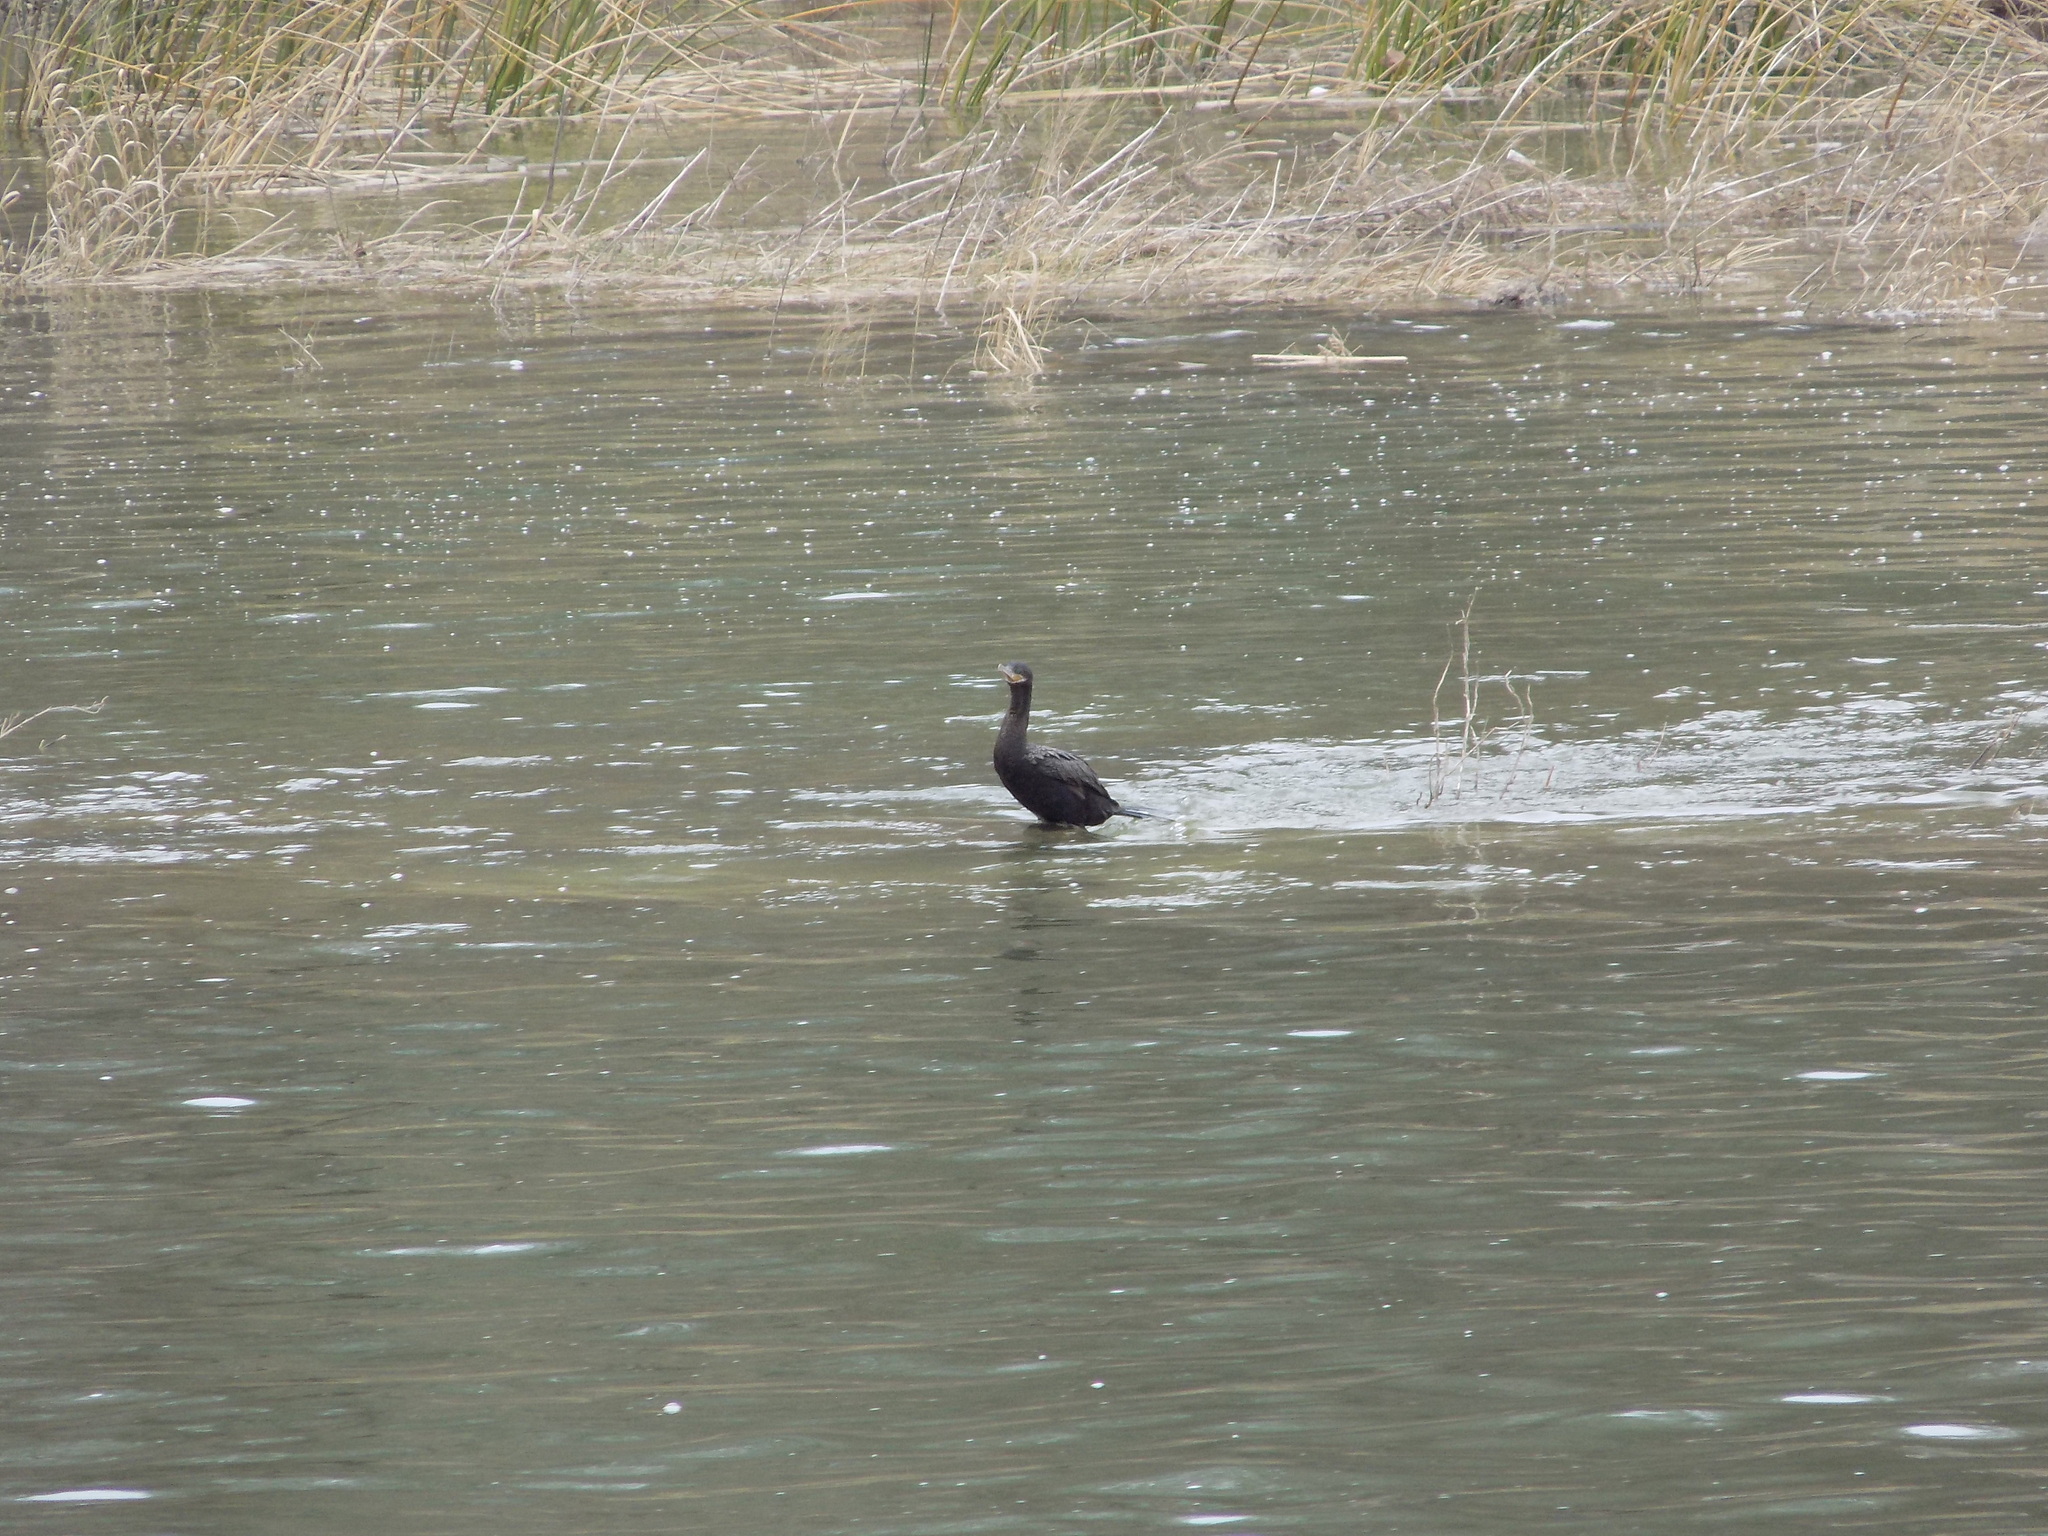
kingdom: Animalia
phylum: Chordata
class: Aves
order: Suliformes
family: Phalacrocoracidae
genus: Phalacrocorax
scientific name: Phalacrocorax brasilianus
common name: Neotropic cormorant
